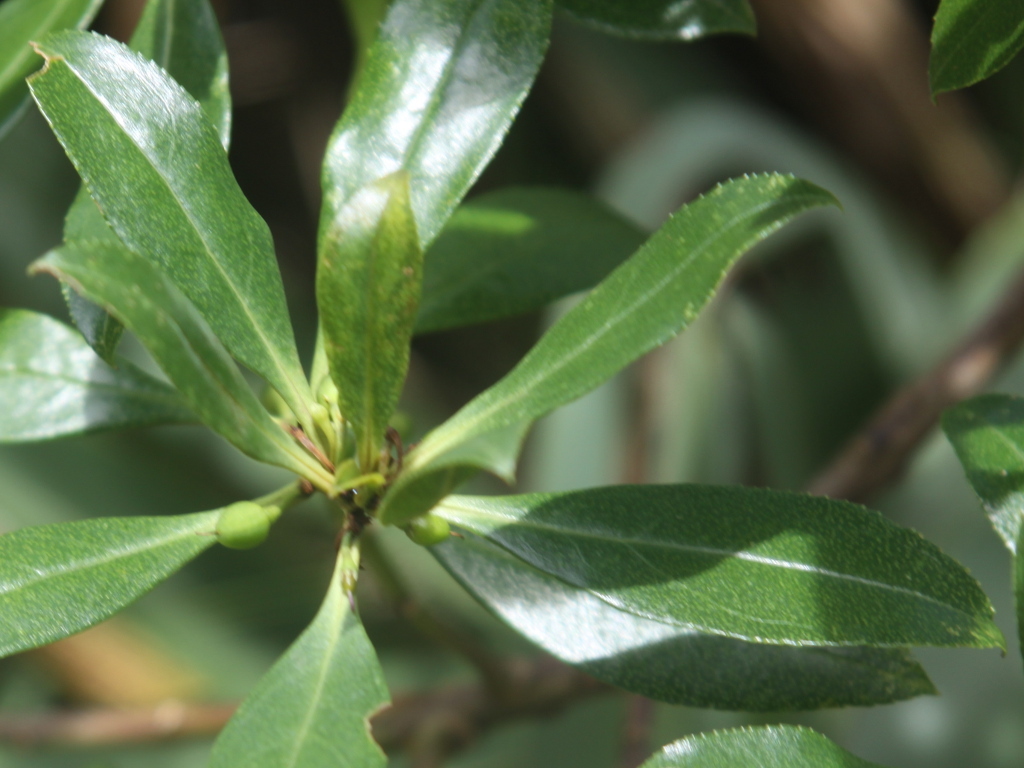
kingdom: Plantae
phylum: Tracheophyta
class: Magnoliopsida
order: Lamiales
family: Scrophulariaceae
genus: Myoporum
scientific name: Myoporum laetum
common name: Ngaio tree
